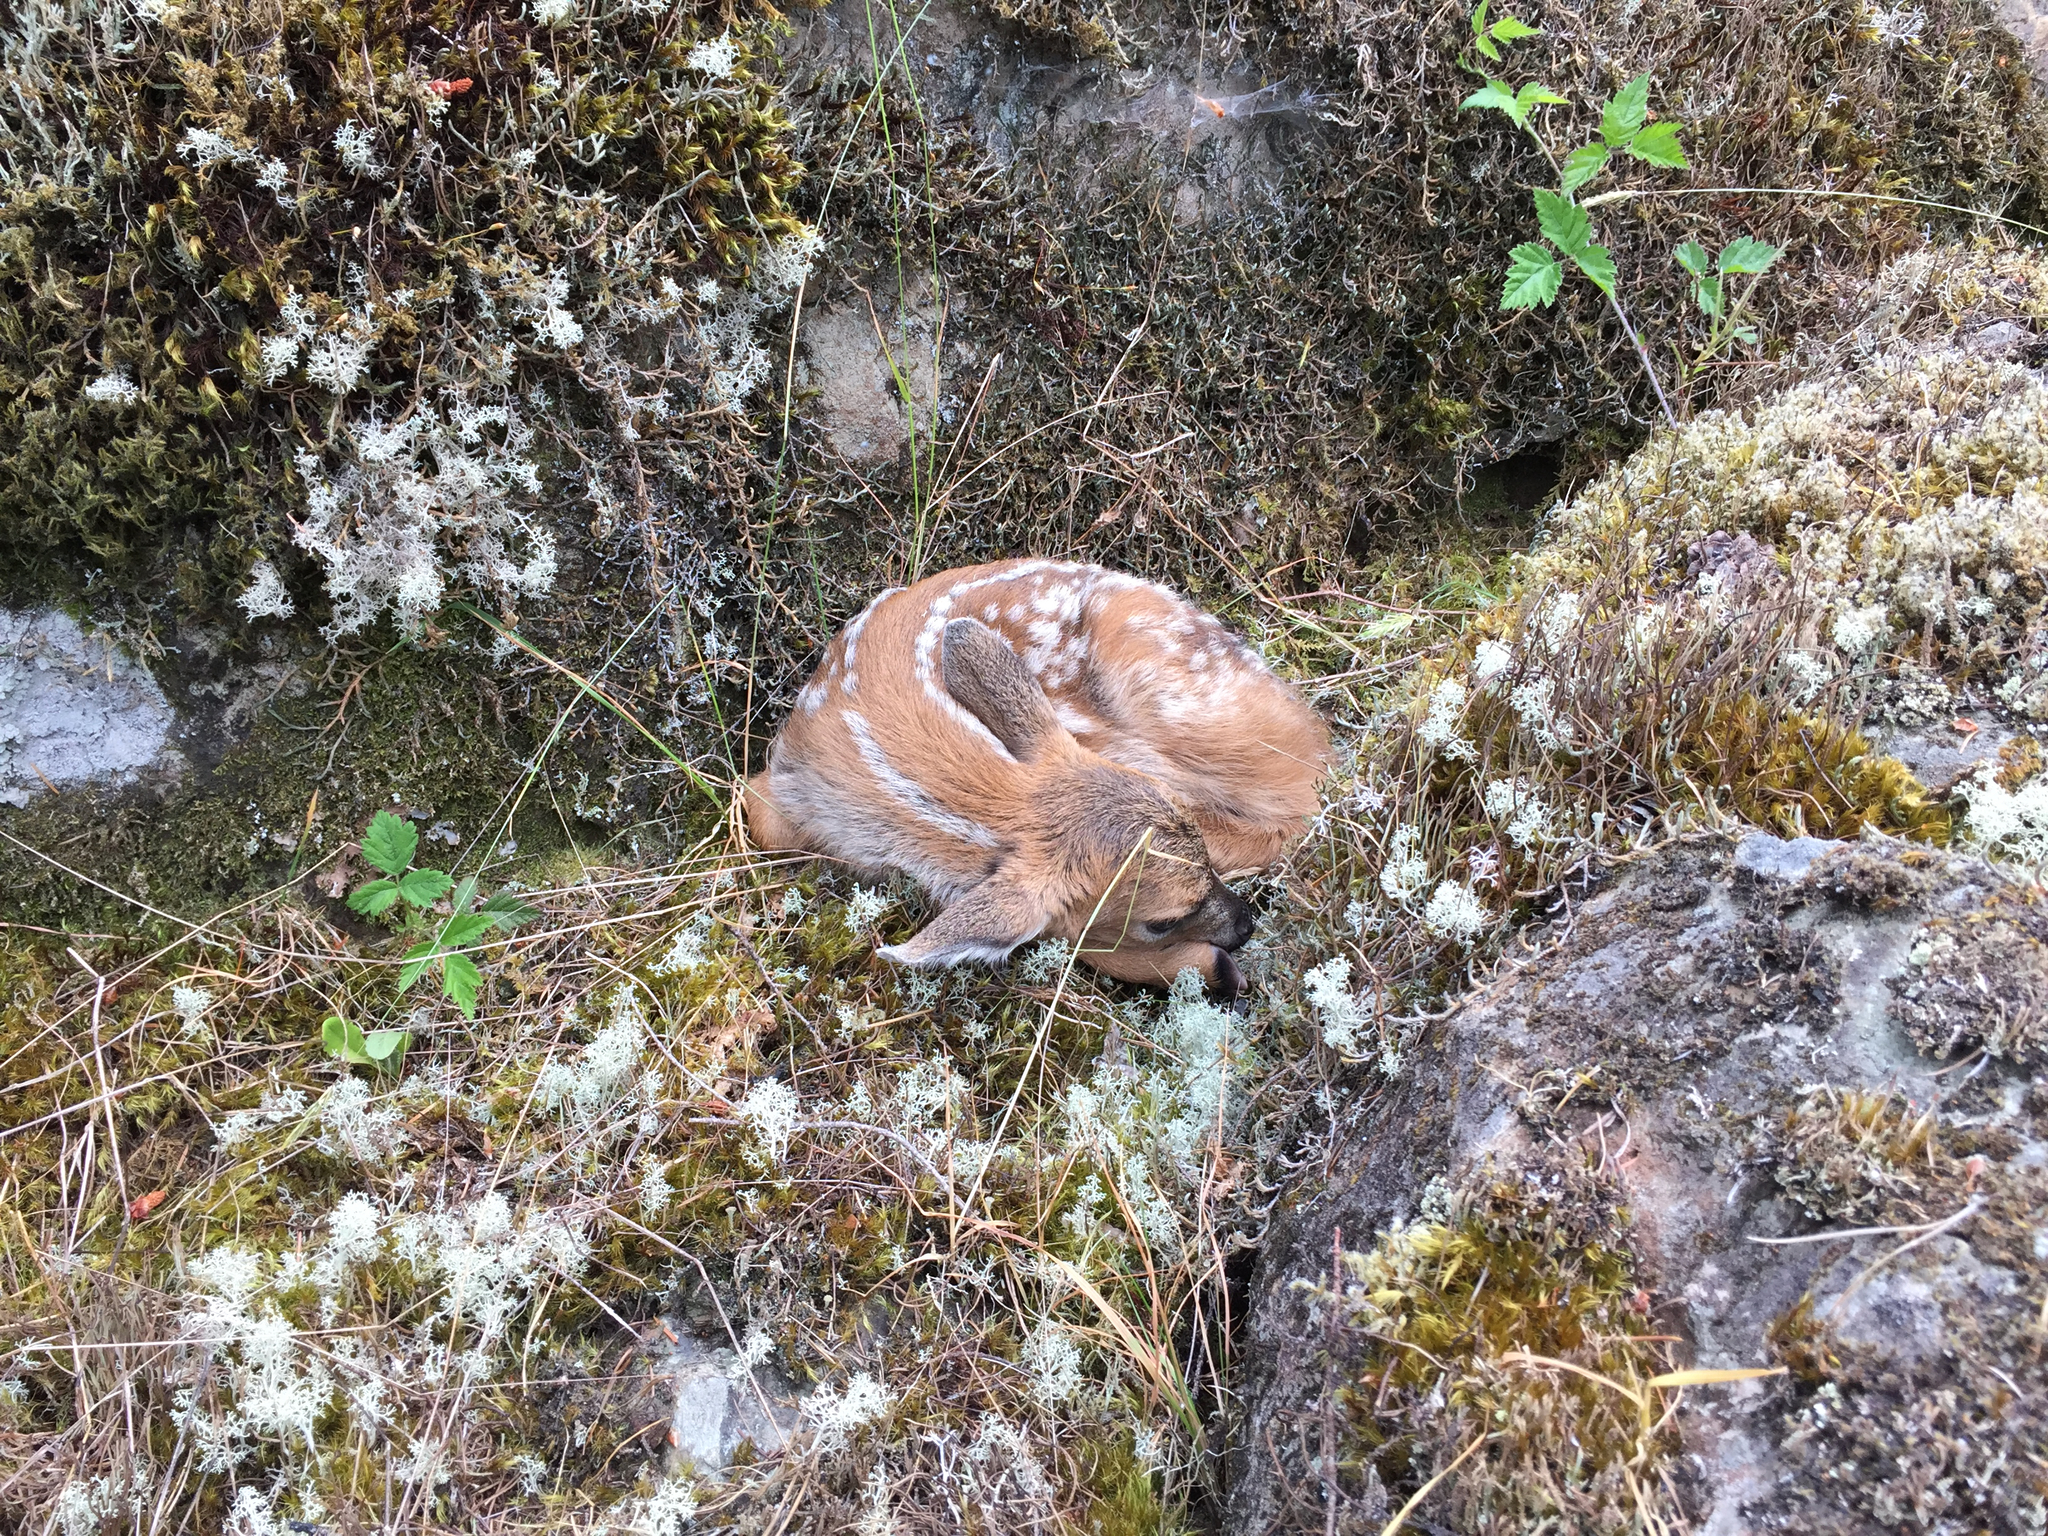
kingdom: Animalia
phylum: Chordata
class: Mammalia
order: Artiodactyla
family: Cervidae
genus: Odocoileus
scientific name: Odocoileus hemionus
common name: Mule deer
